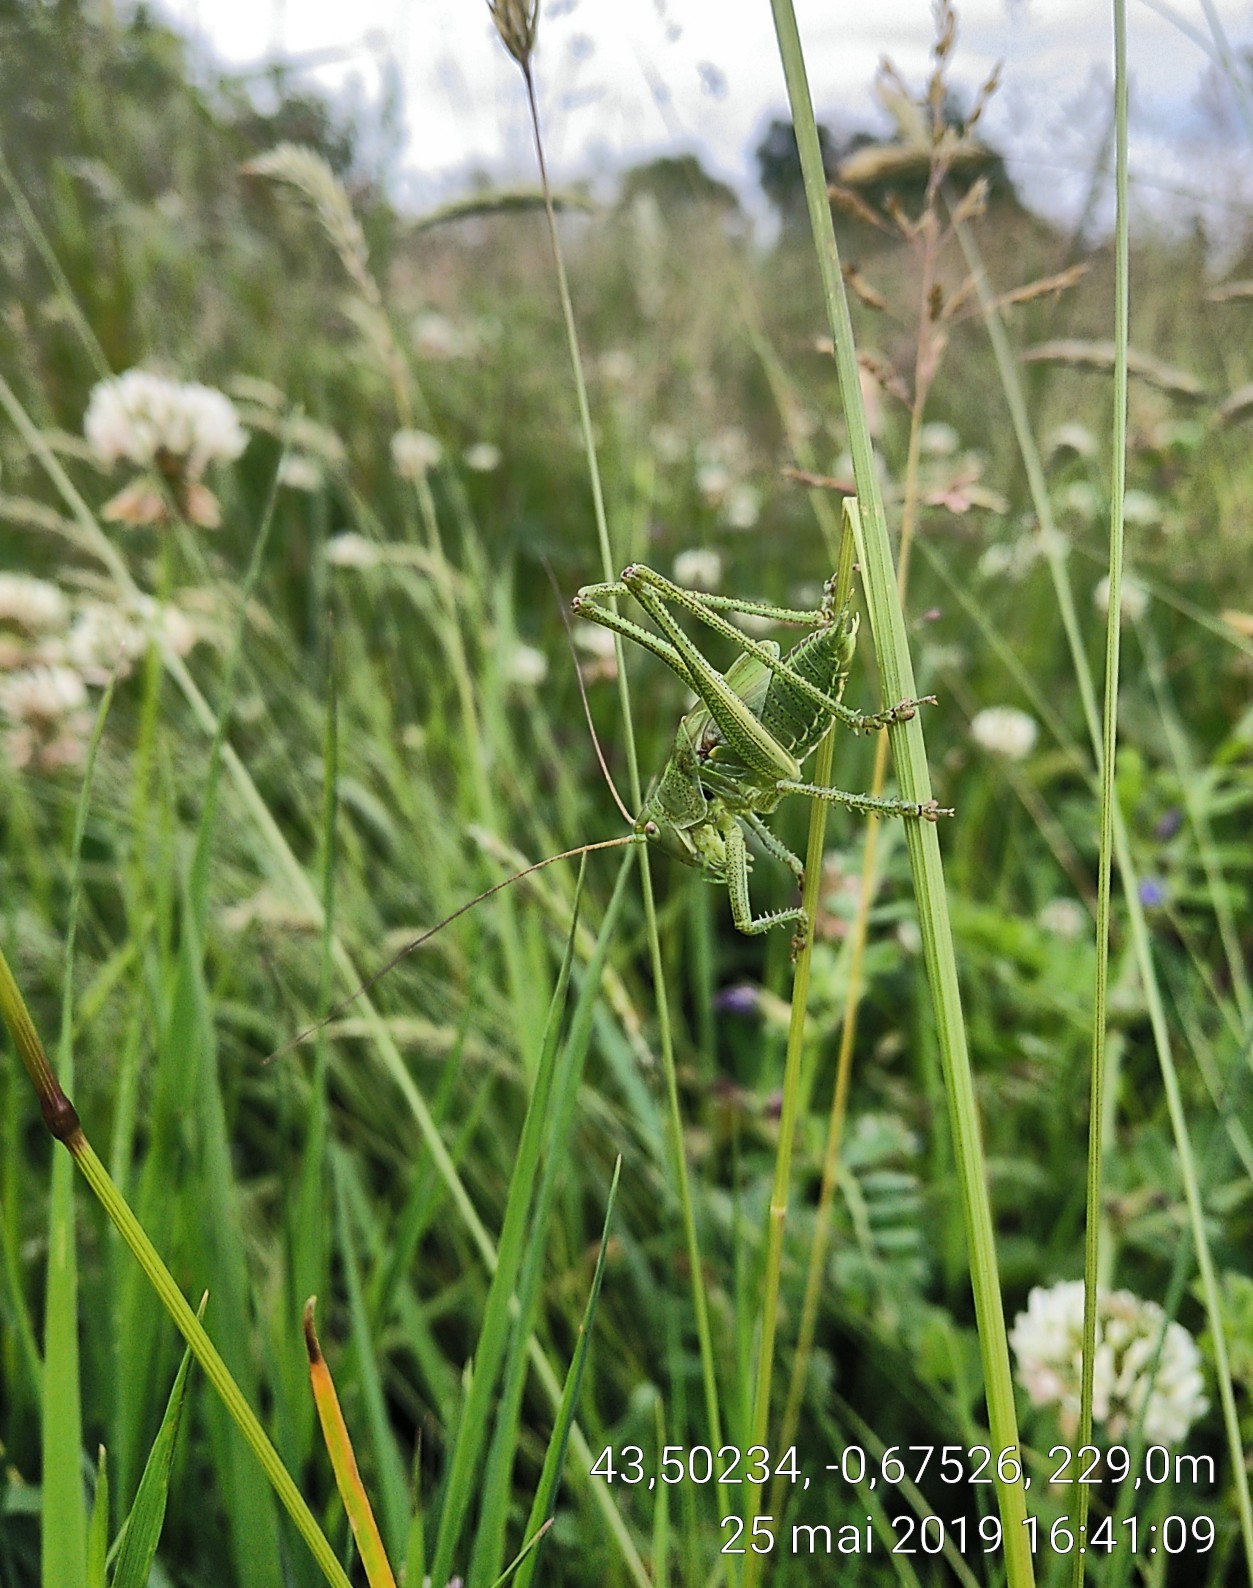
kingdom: Animalia
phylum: Arthropoda
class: Insecta
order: Orthoptera
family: Tettigoniidae
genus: Tettigonia
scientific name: Tettigonia viridissima
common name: Great green bush-cricket
